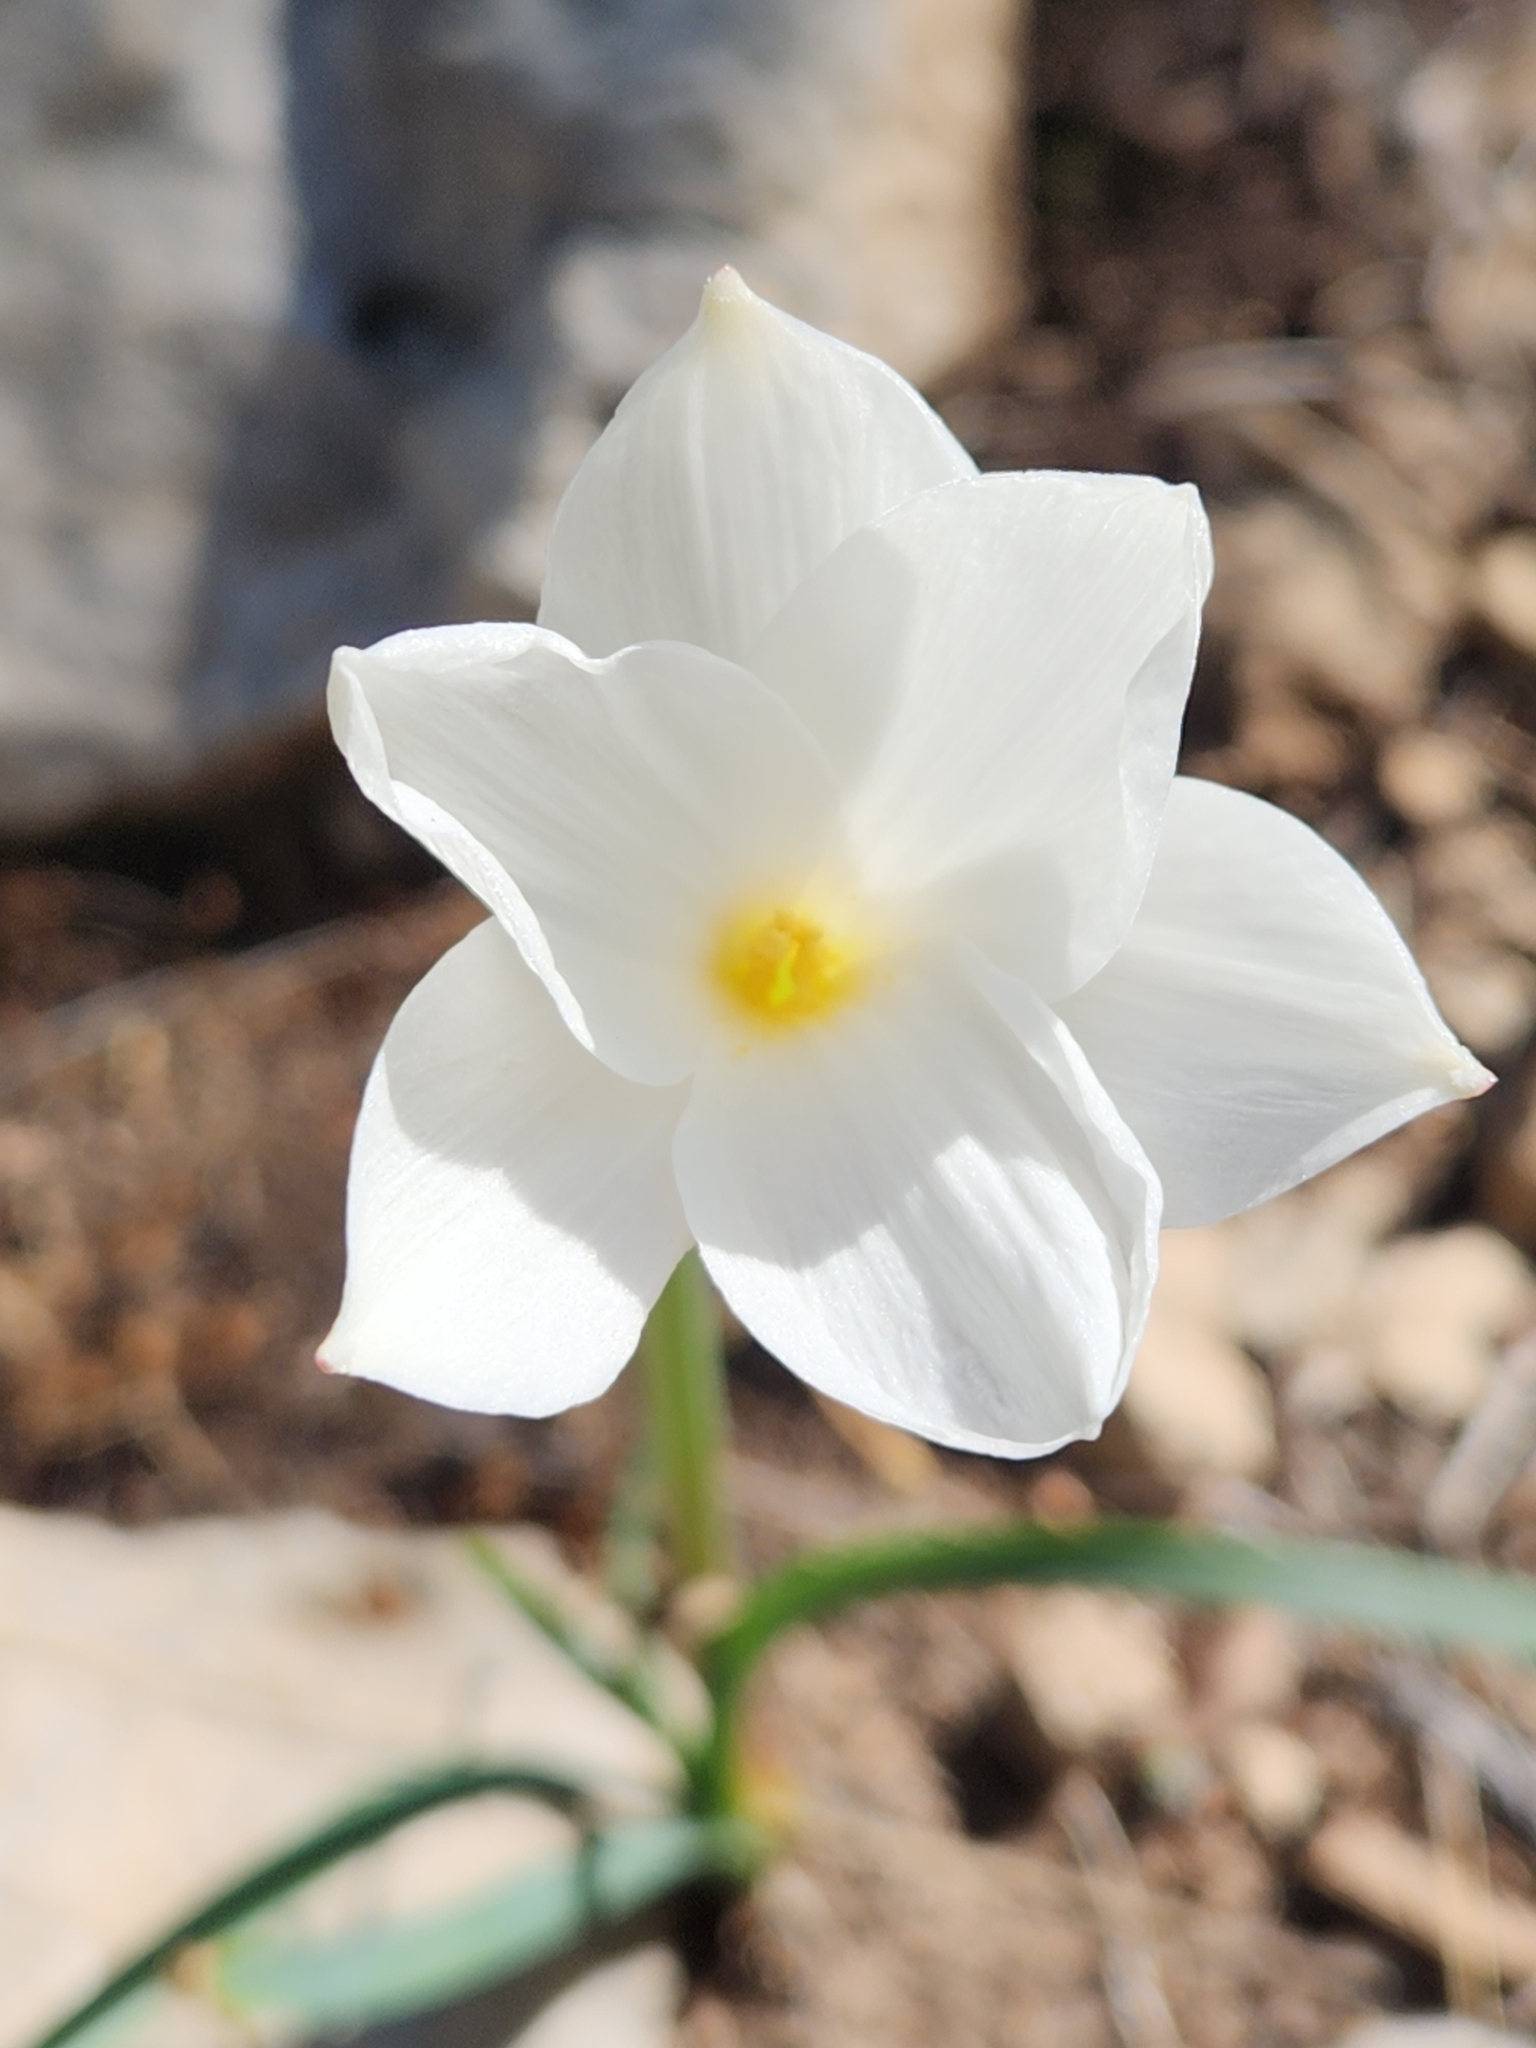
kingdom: Plantae
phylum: Tracheophyta
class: Liliopsida
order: Asparagales
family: Amaryllidaceae
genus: Zephyranthes
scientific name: Zephyranthes drummondii
